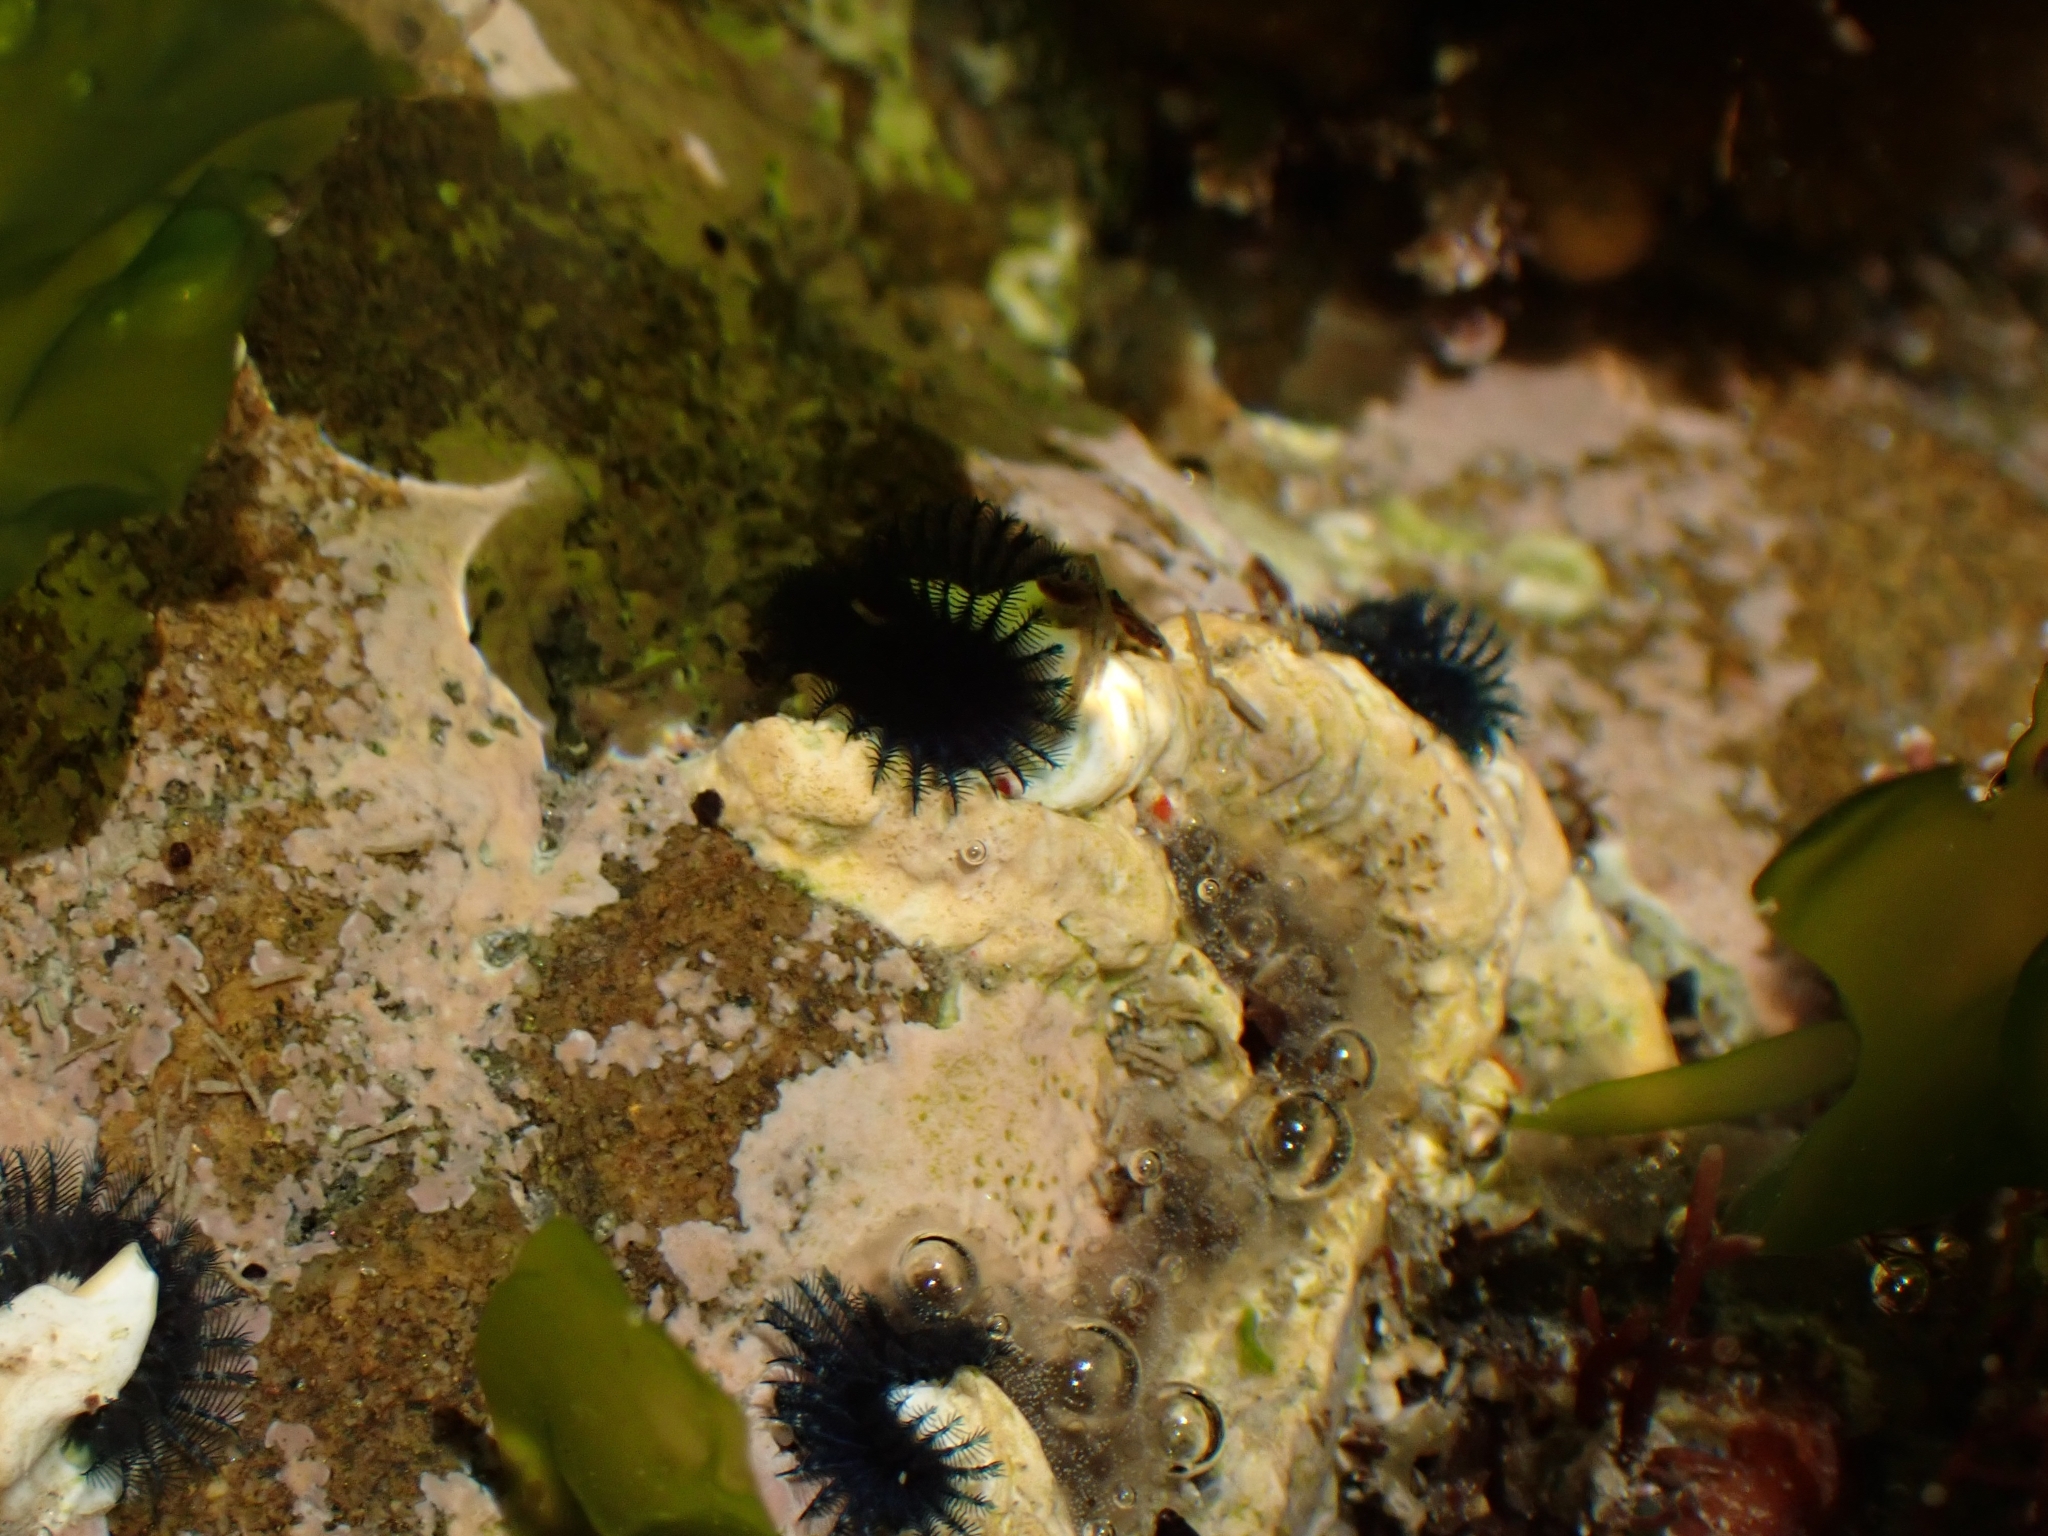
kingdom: Animalia
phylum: Annelida
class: Polychaeta
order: Sabellida
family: Serpulidae
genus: Spirobranchus
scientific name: Spirobranchus cariniferus
